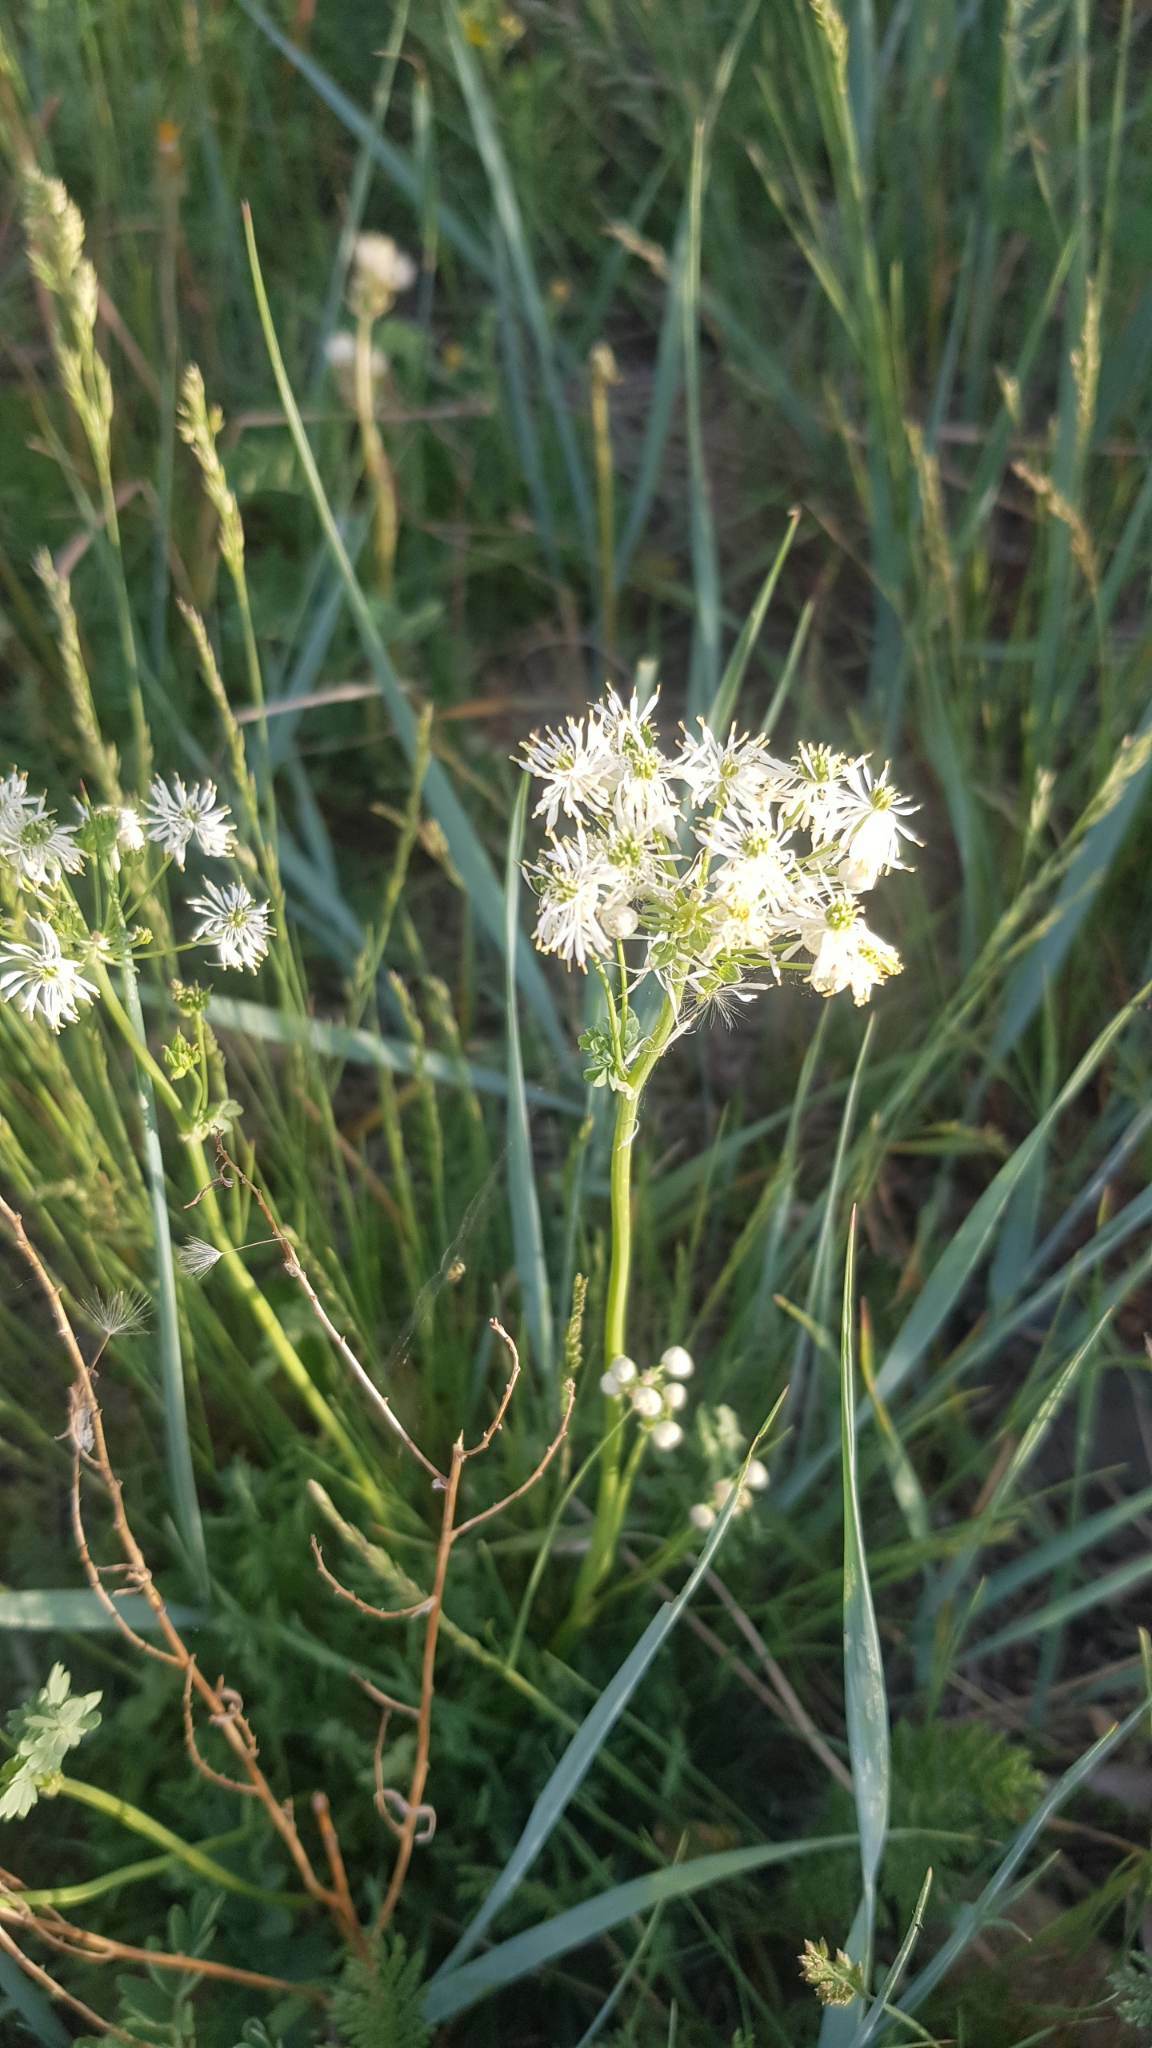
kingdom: Plantae
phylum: Tracheophyta
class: Magnoliopsida
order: Ranunculales
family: Ranunculaceae
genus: Thalictrum
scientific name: Thalictrum petaloideum
